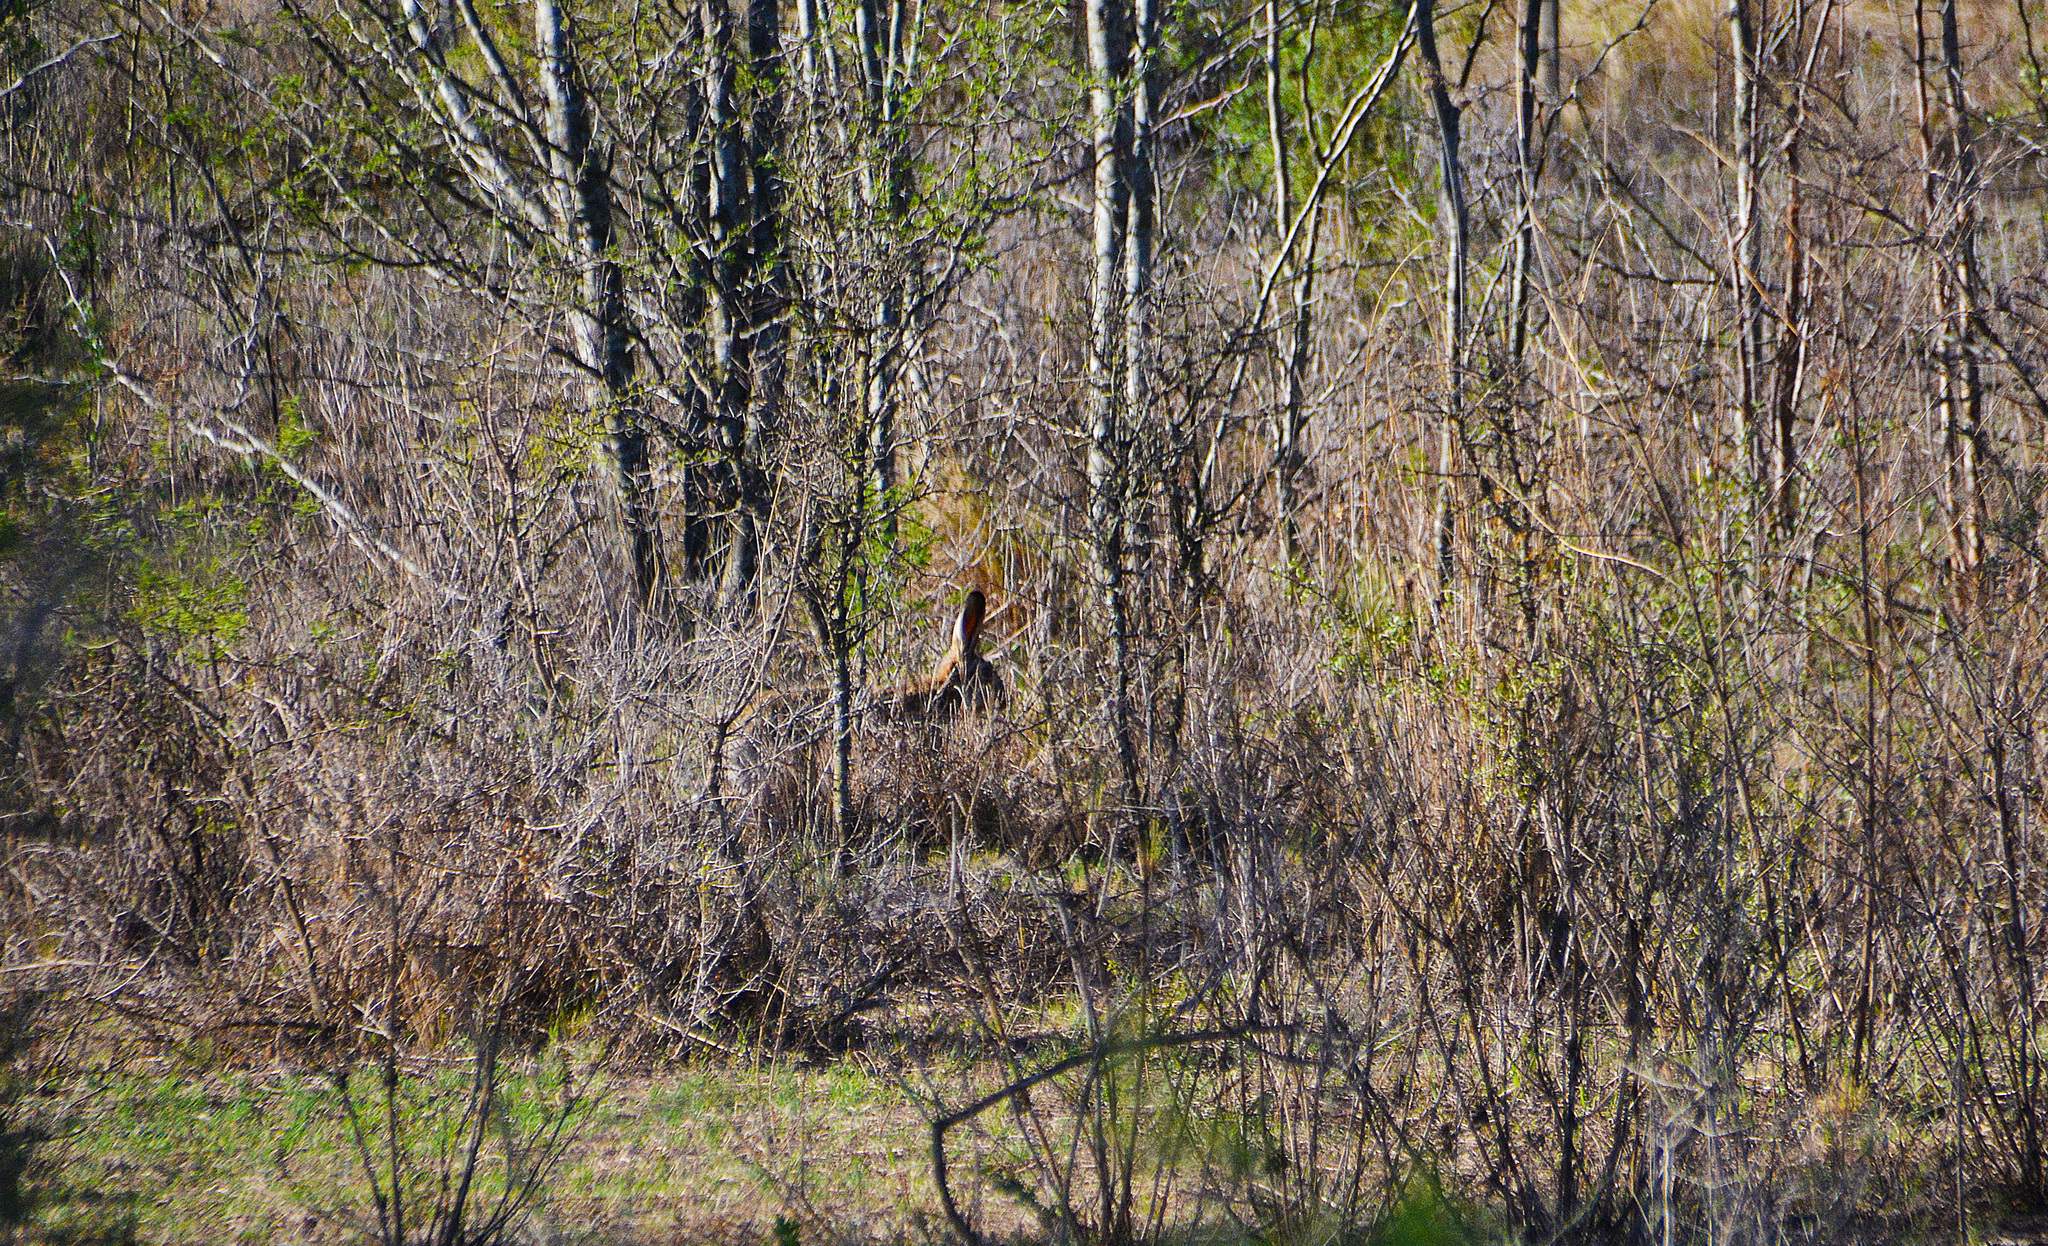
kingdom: Animalia
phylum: Chordata
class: Mammalia
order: Lagomorpha
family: Leporidae
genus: Lepus
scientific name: Lepus europaeus
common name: European hare
